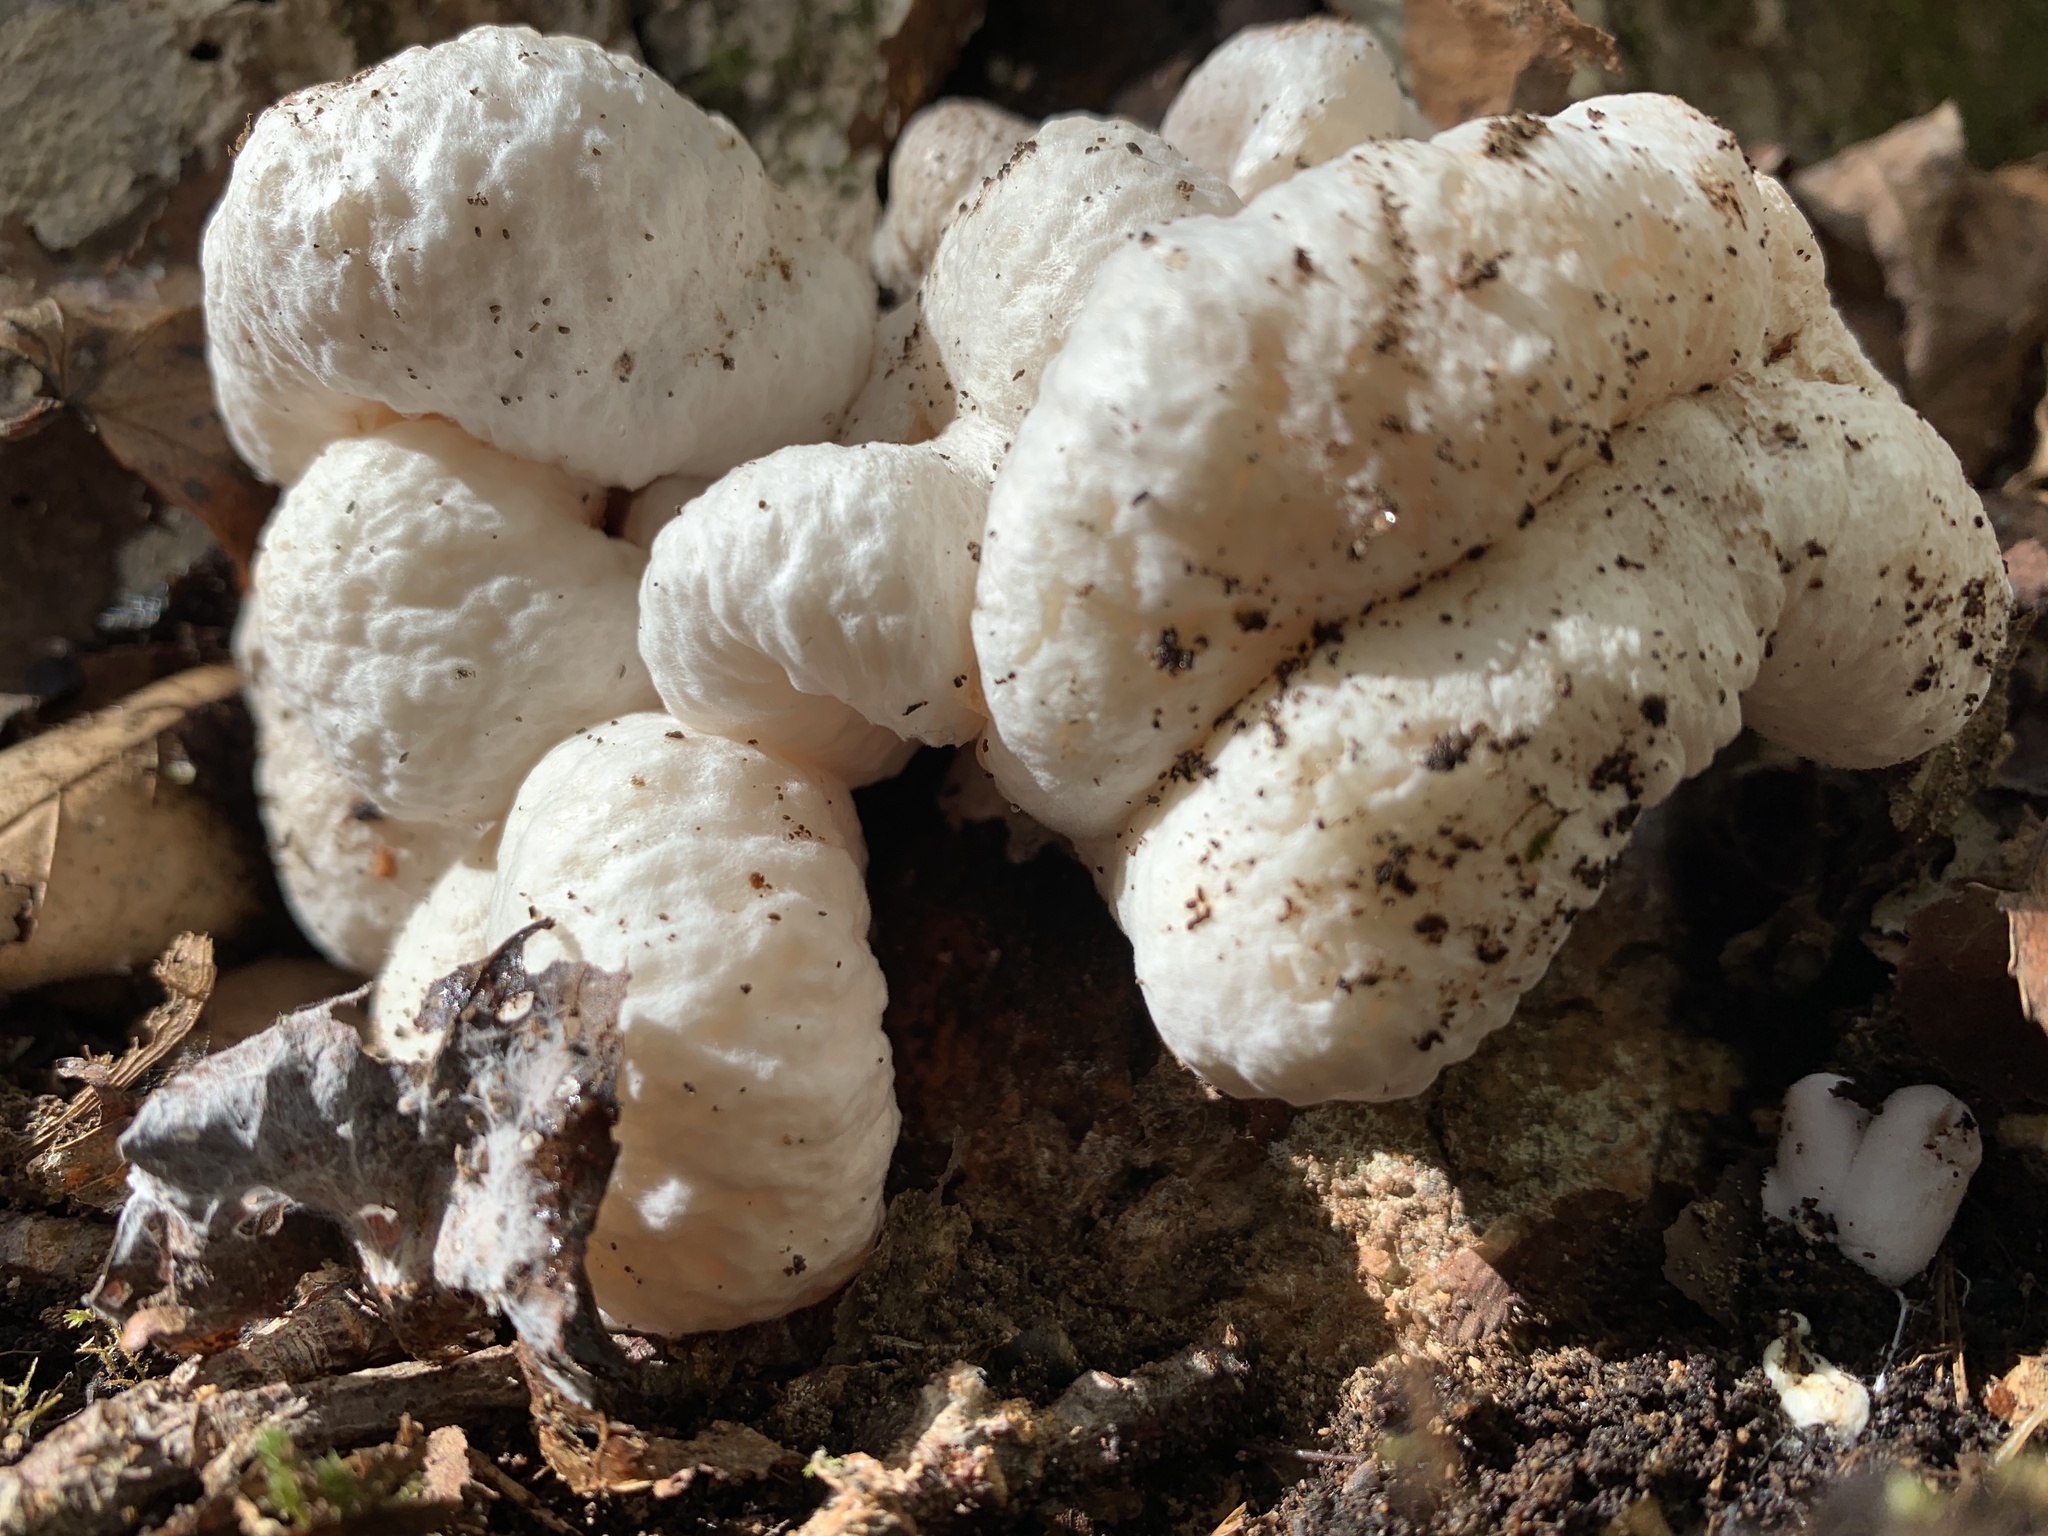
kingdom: Fungi
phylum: Basidiomycota
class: Agaricomycetes
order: Agaricales
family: Entolomataceae
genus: Entoloma
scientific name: Entoloma abortivum
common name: Aborted entoloma
